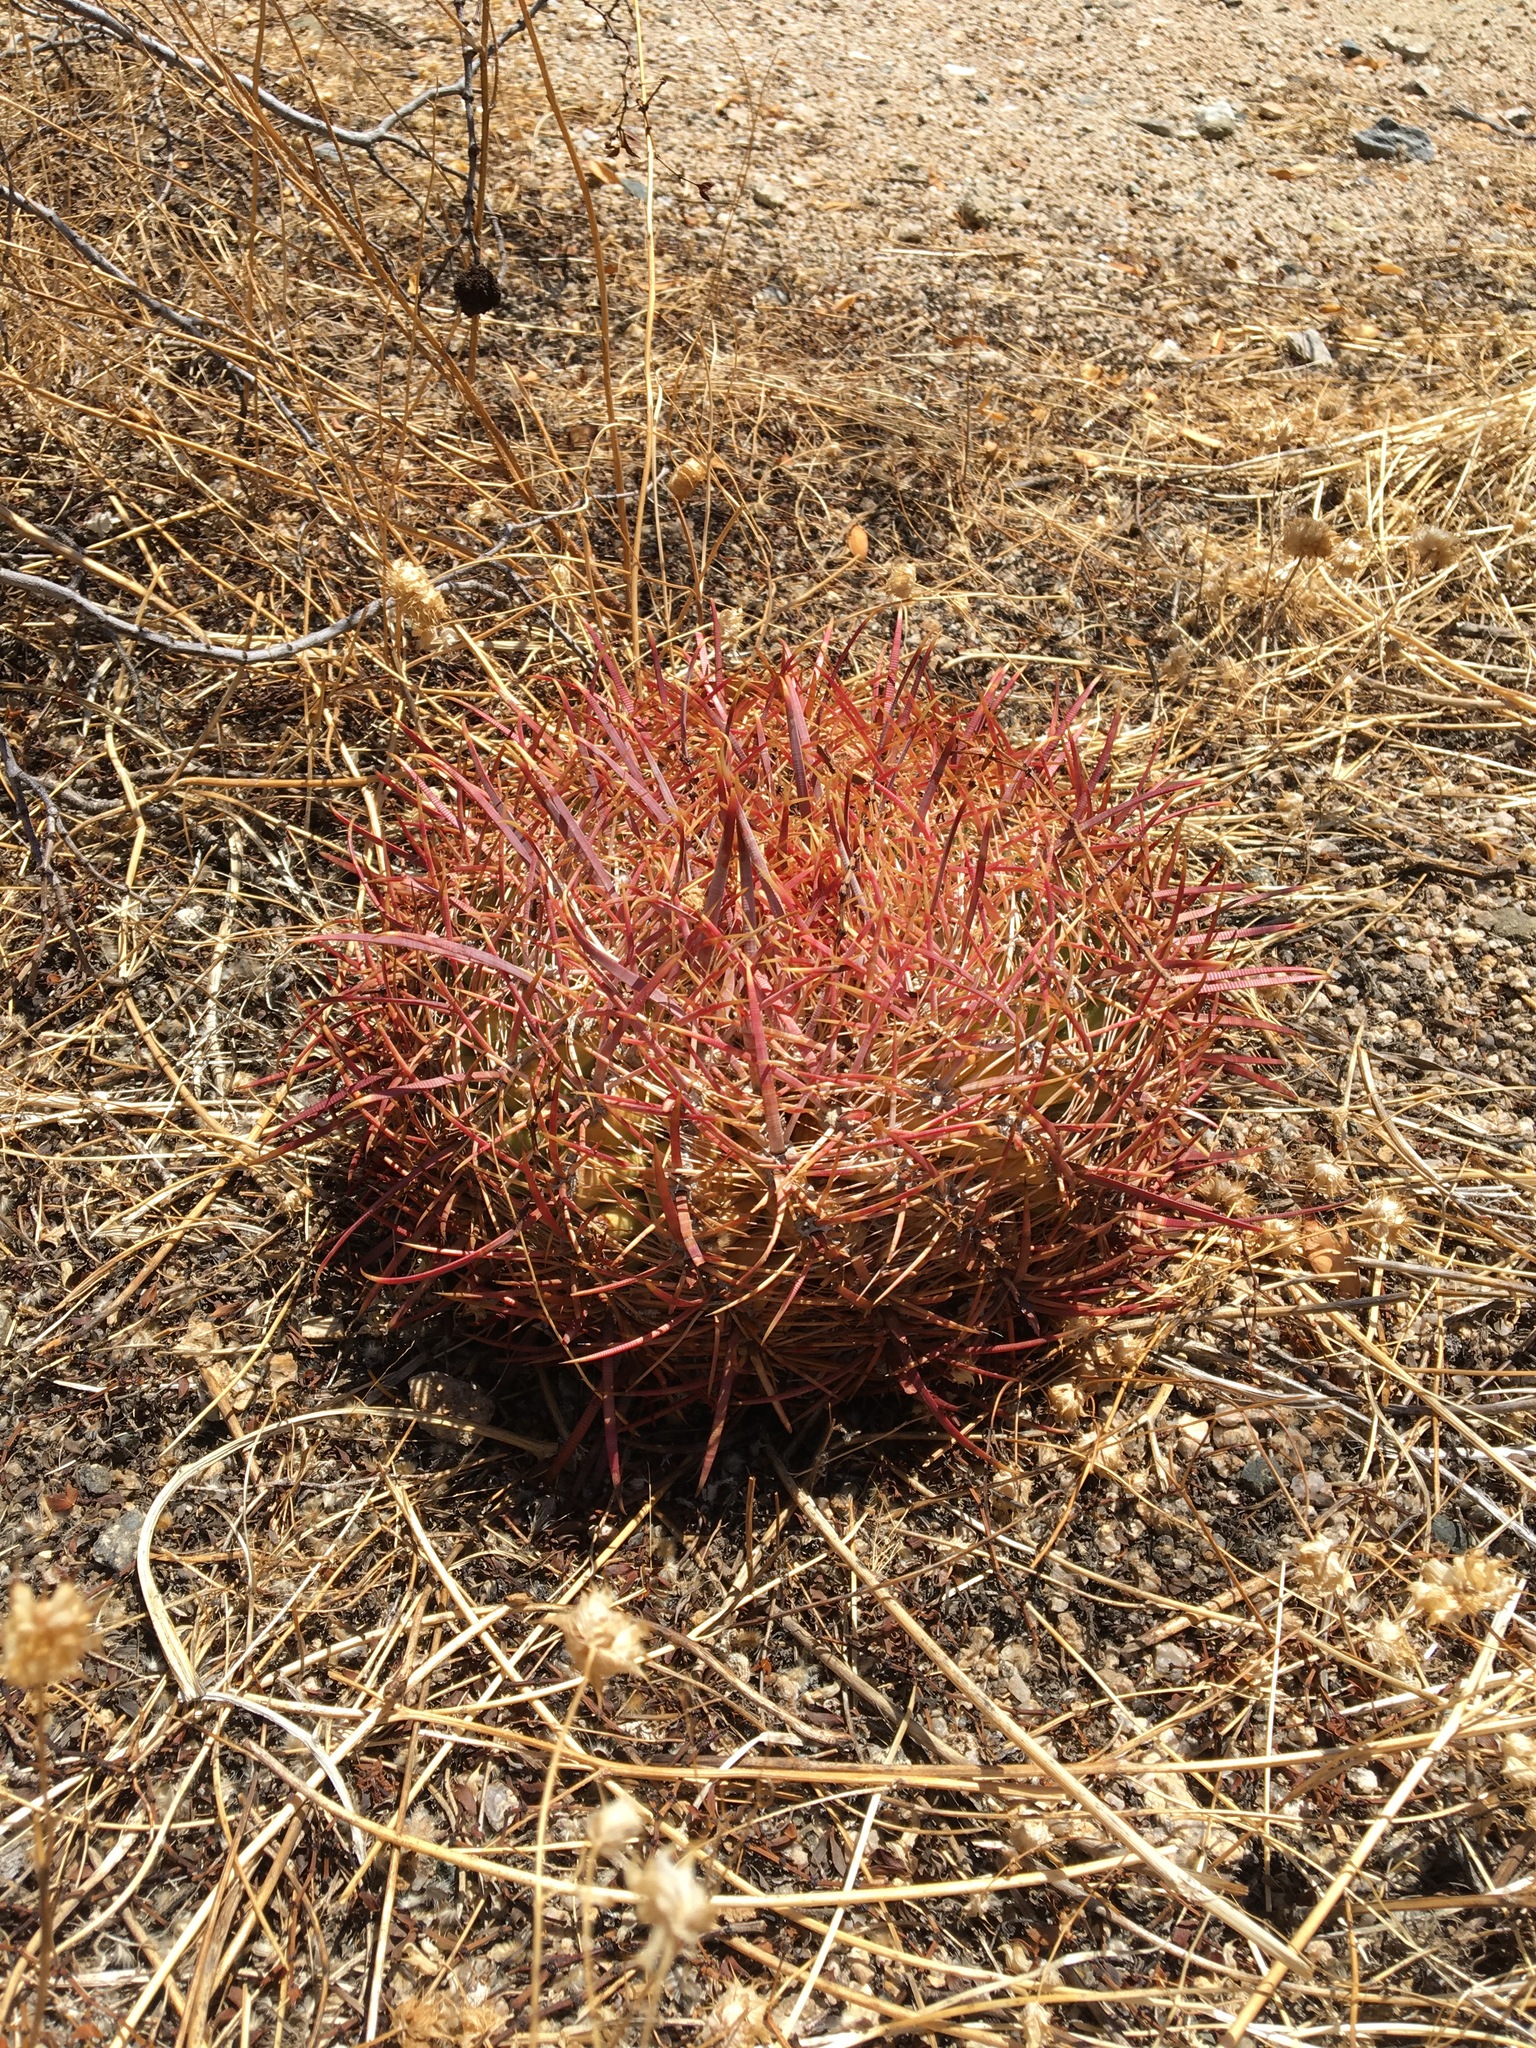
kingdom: Plantae
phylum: Tracheophyta
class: Magnoliopsida
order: Caryophyllales
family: Cactaceae
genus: Ferocactus
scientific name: Ferocactus cylindraceus
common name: California barrel cactus
